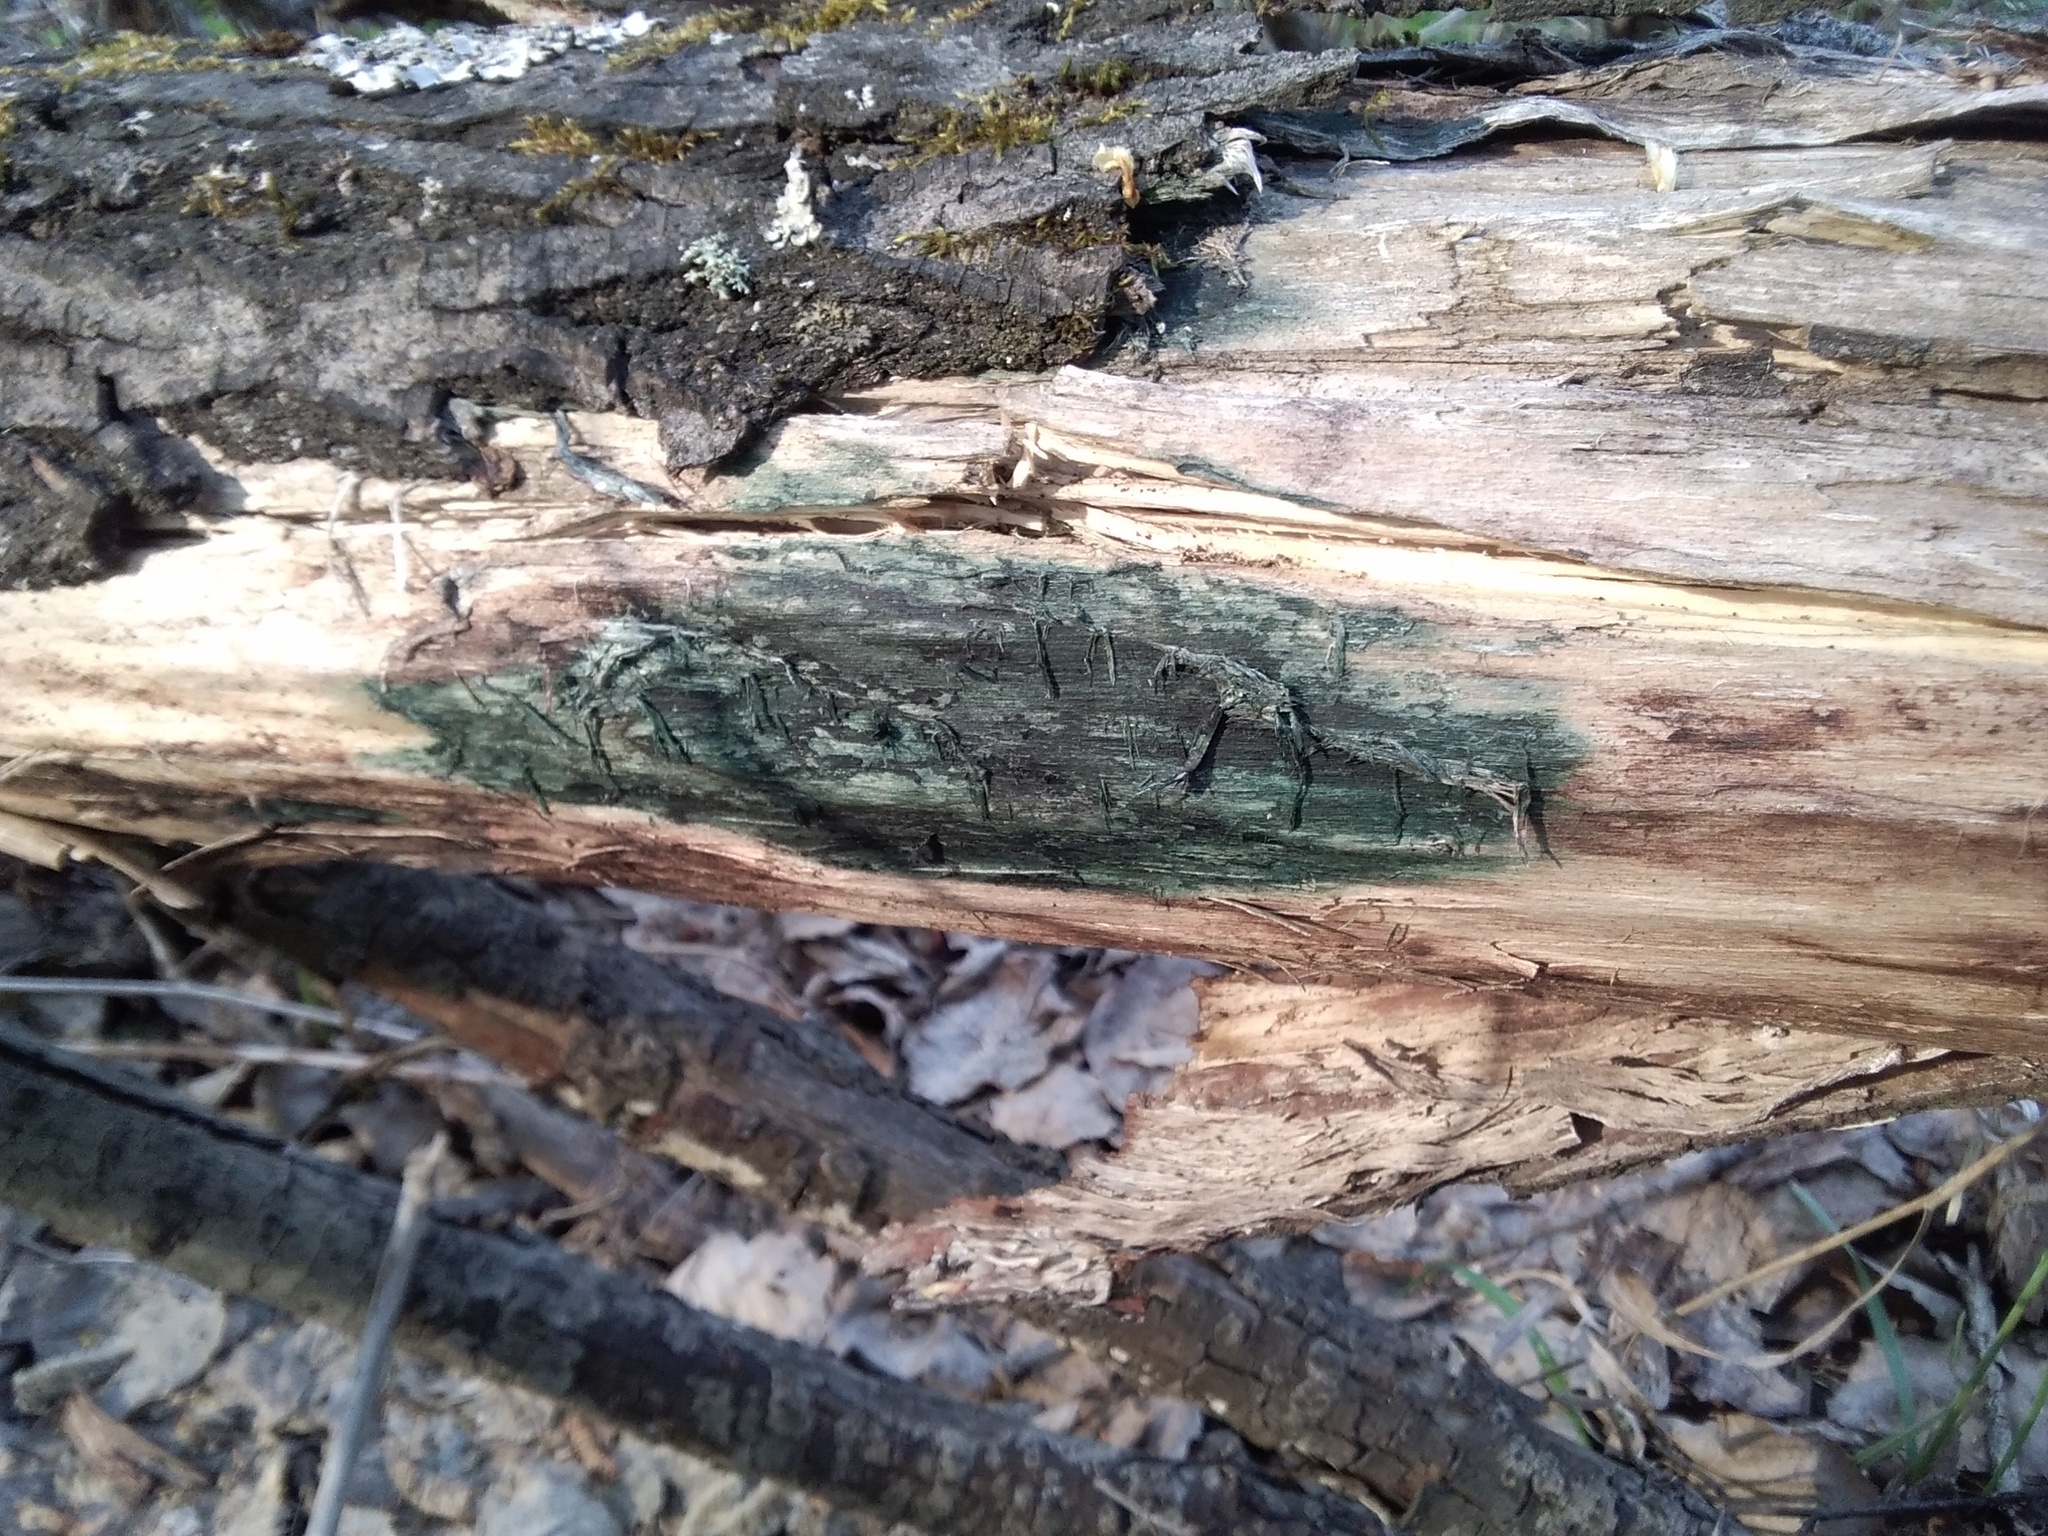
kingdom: Fungi
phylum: Ascomycota
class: Leotiomycetes
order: Helotiales
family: Chlorociboriaceae
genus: Chlorociboria
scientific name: Chlorociboria
